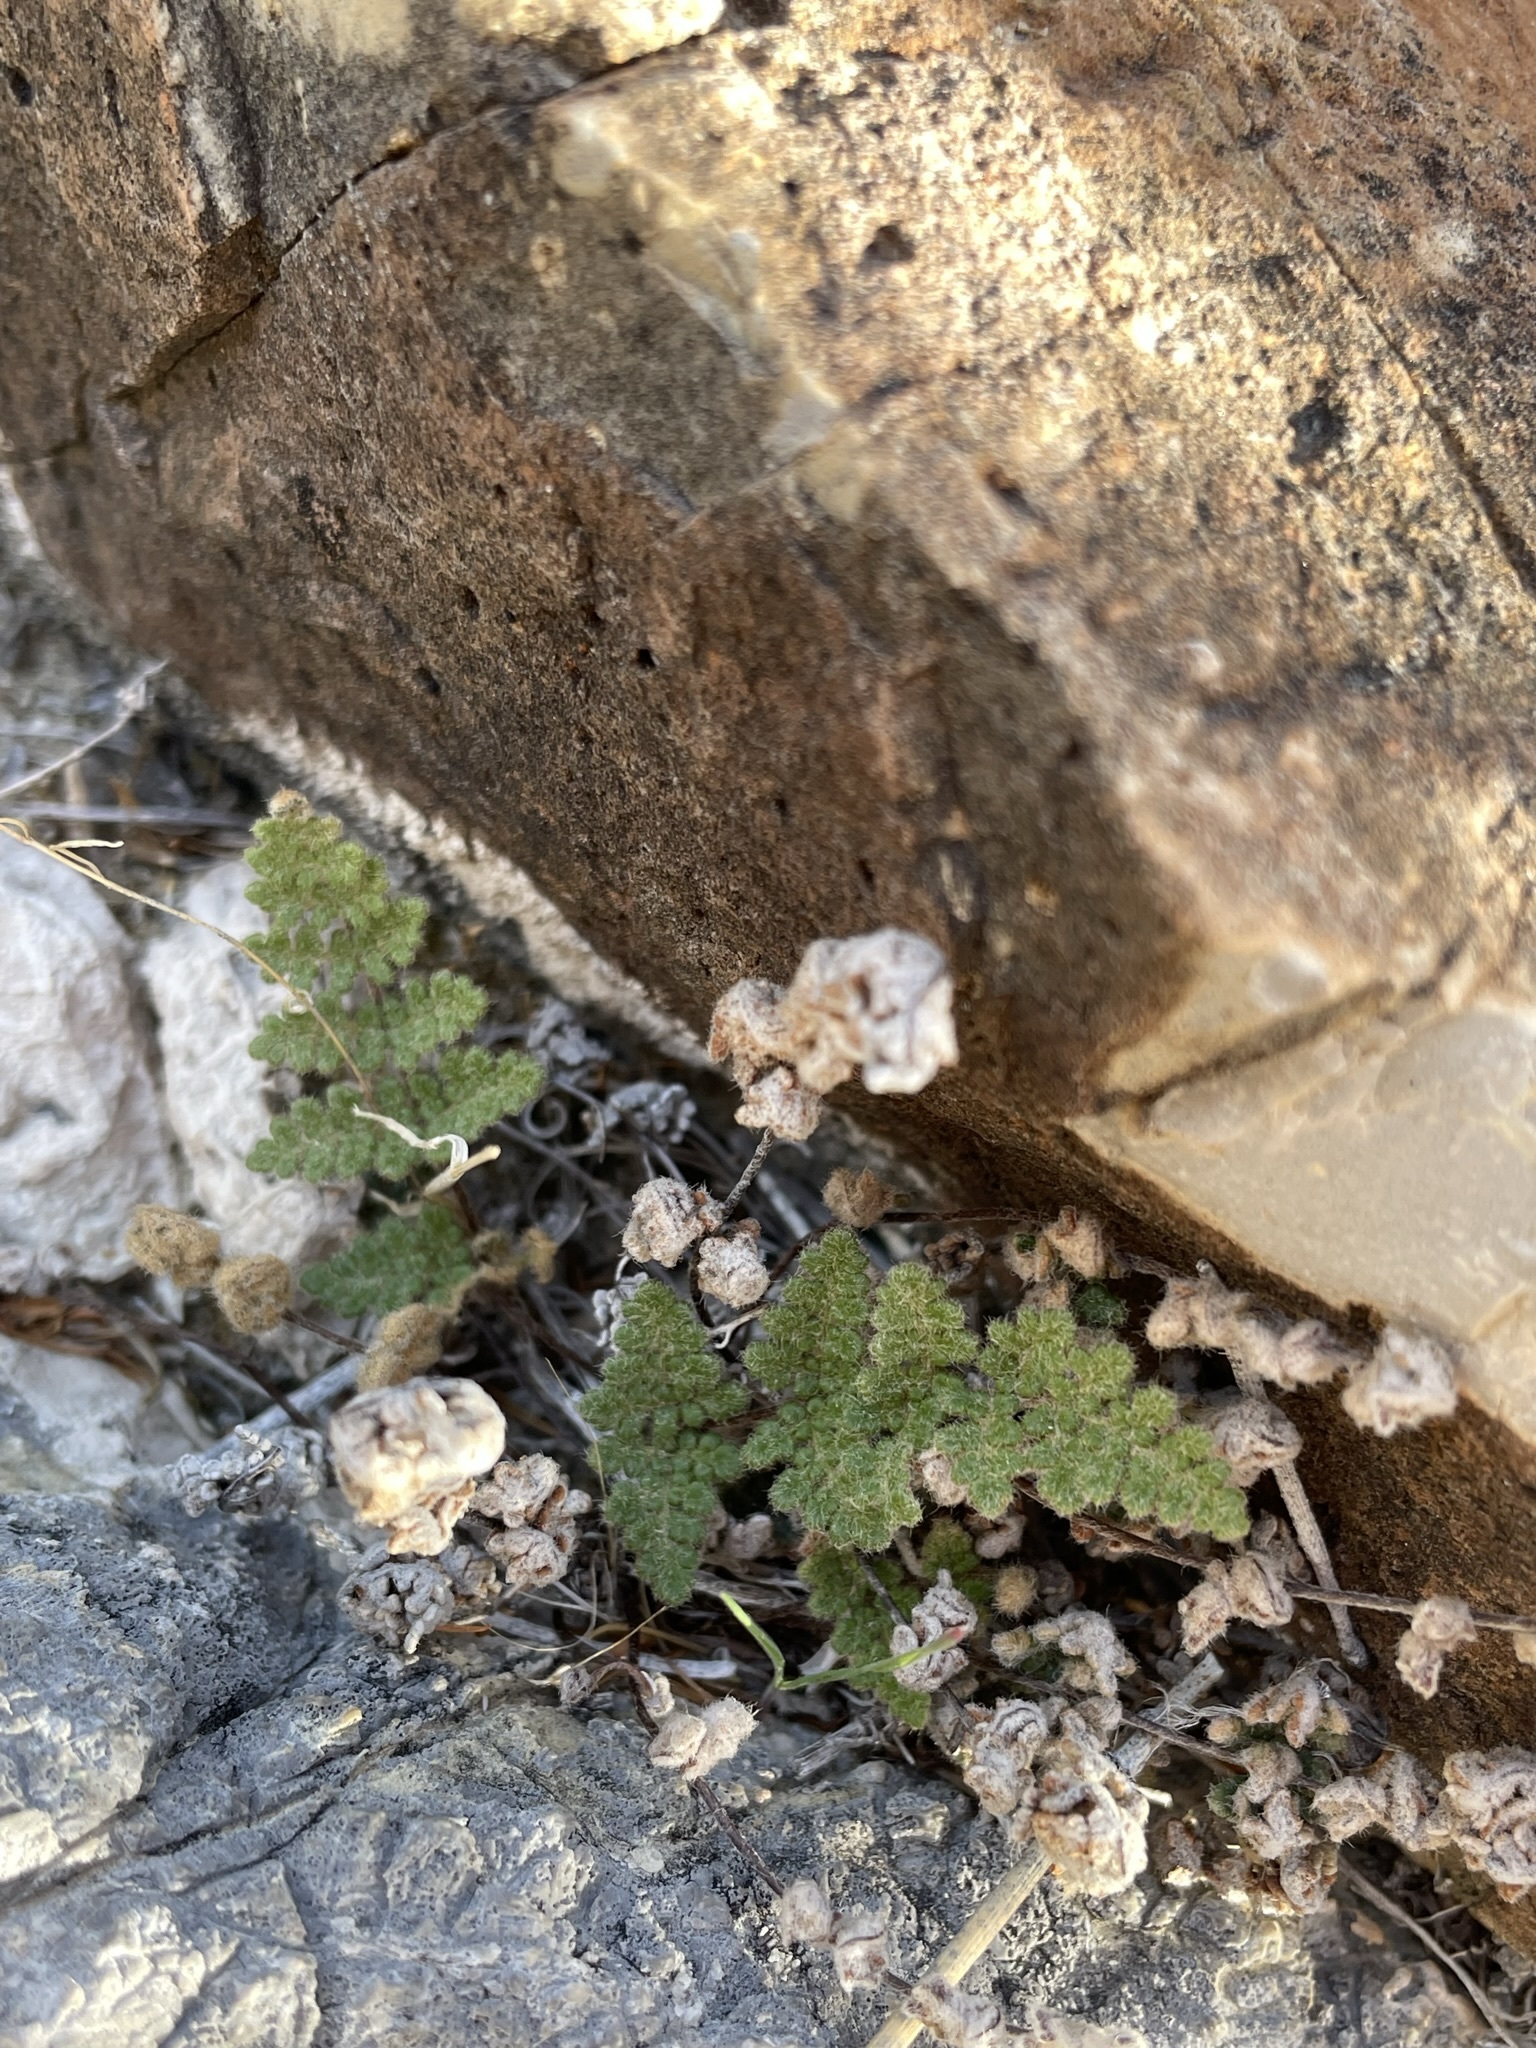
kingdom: Plantae
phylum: Tracheophyta
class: Polypodiopsida
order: Polypodiales
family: Pteridaceae
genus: Myriopteris
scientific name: Myriopteris gracilis
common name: Fee's lip fern
